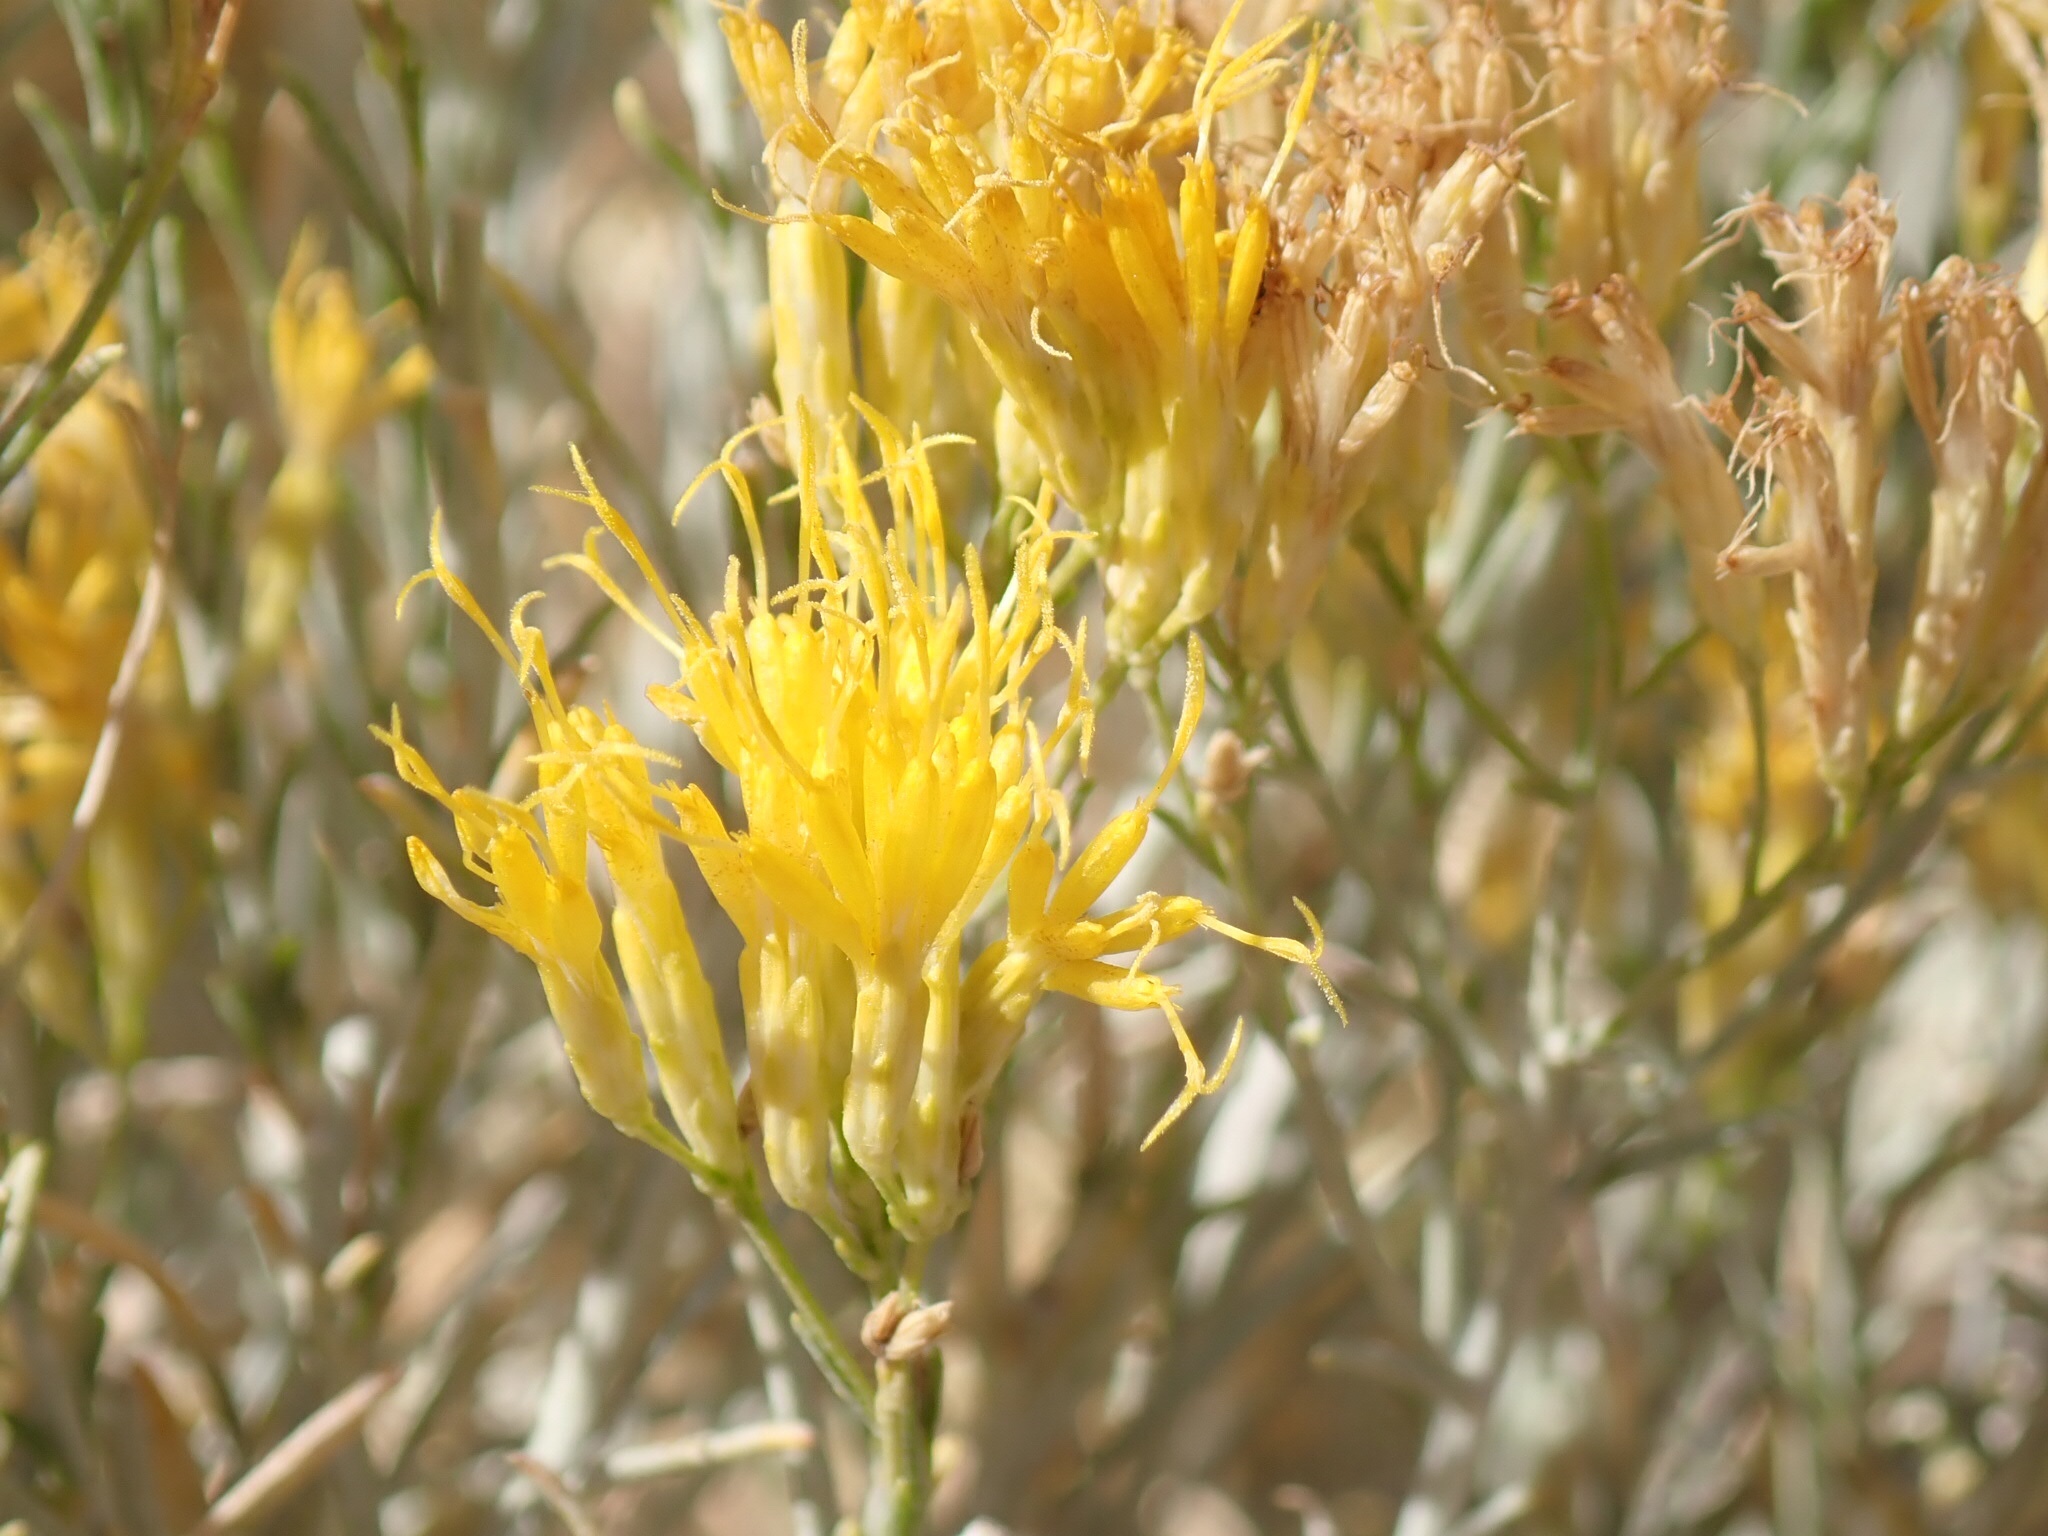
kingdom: Plantae
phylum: Tracheophyta
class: Magnoliopsida
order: Asterales
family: Asteraceae
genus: Ericameria
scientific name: Ericameria nauseosa
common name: Rubber rabbitbrush
